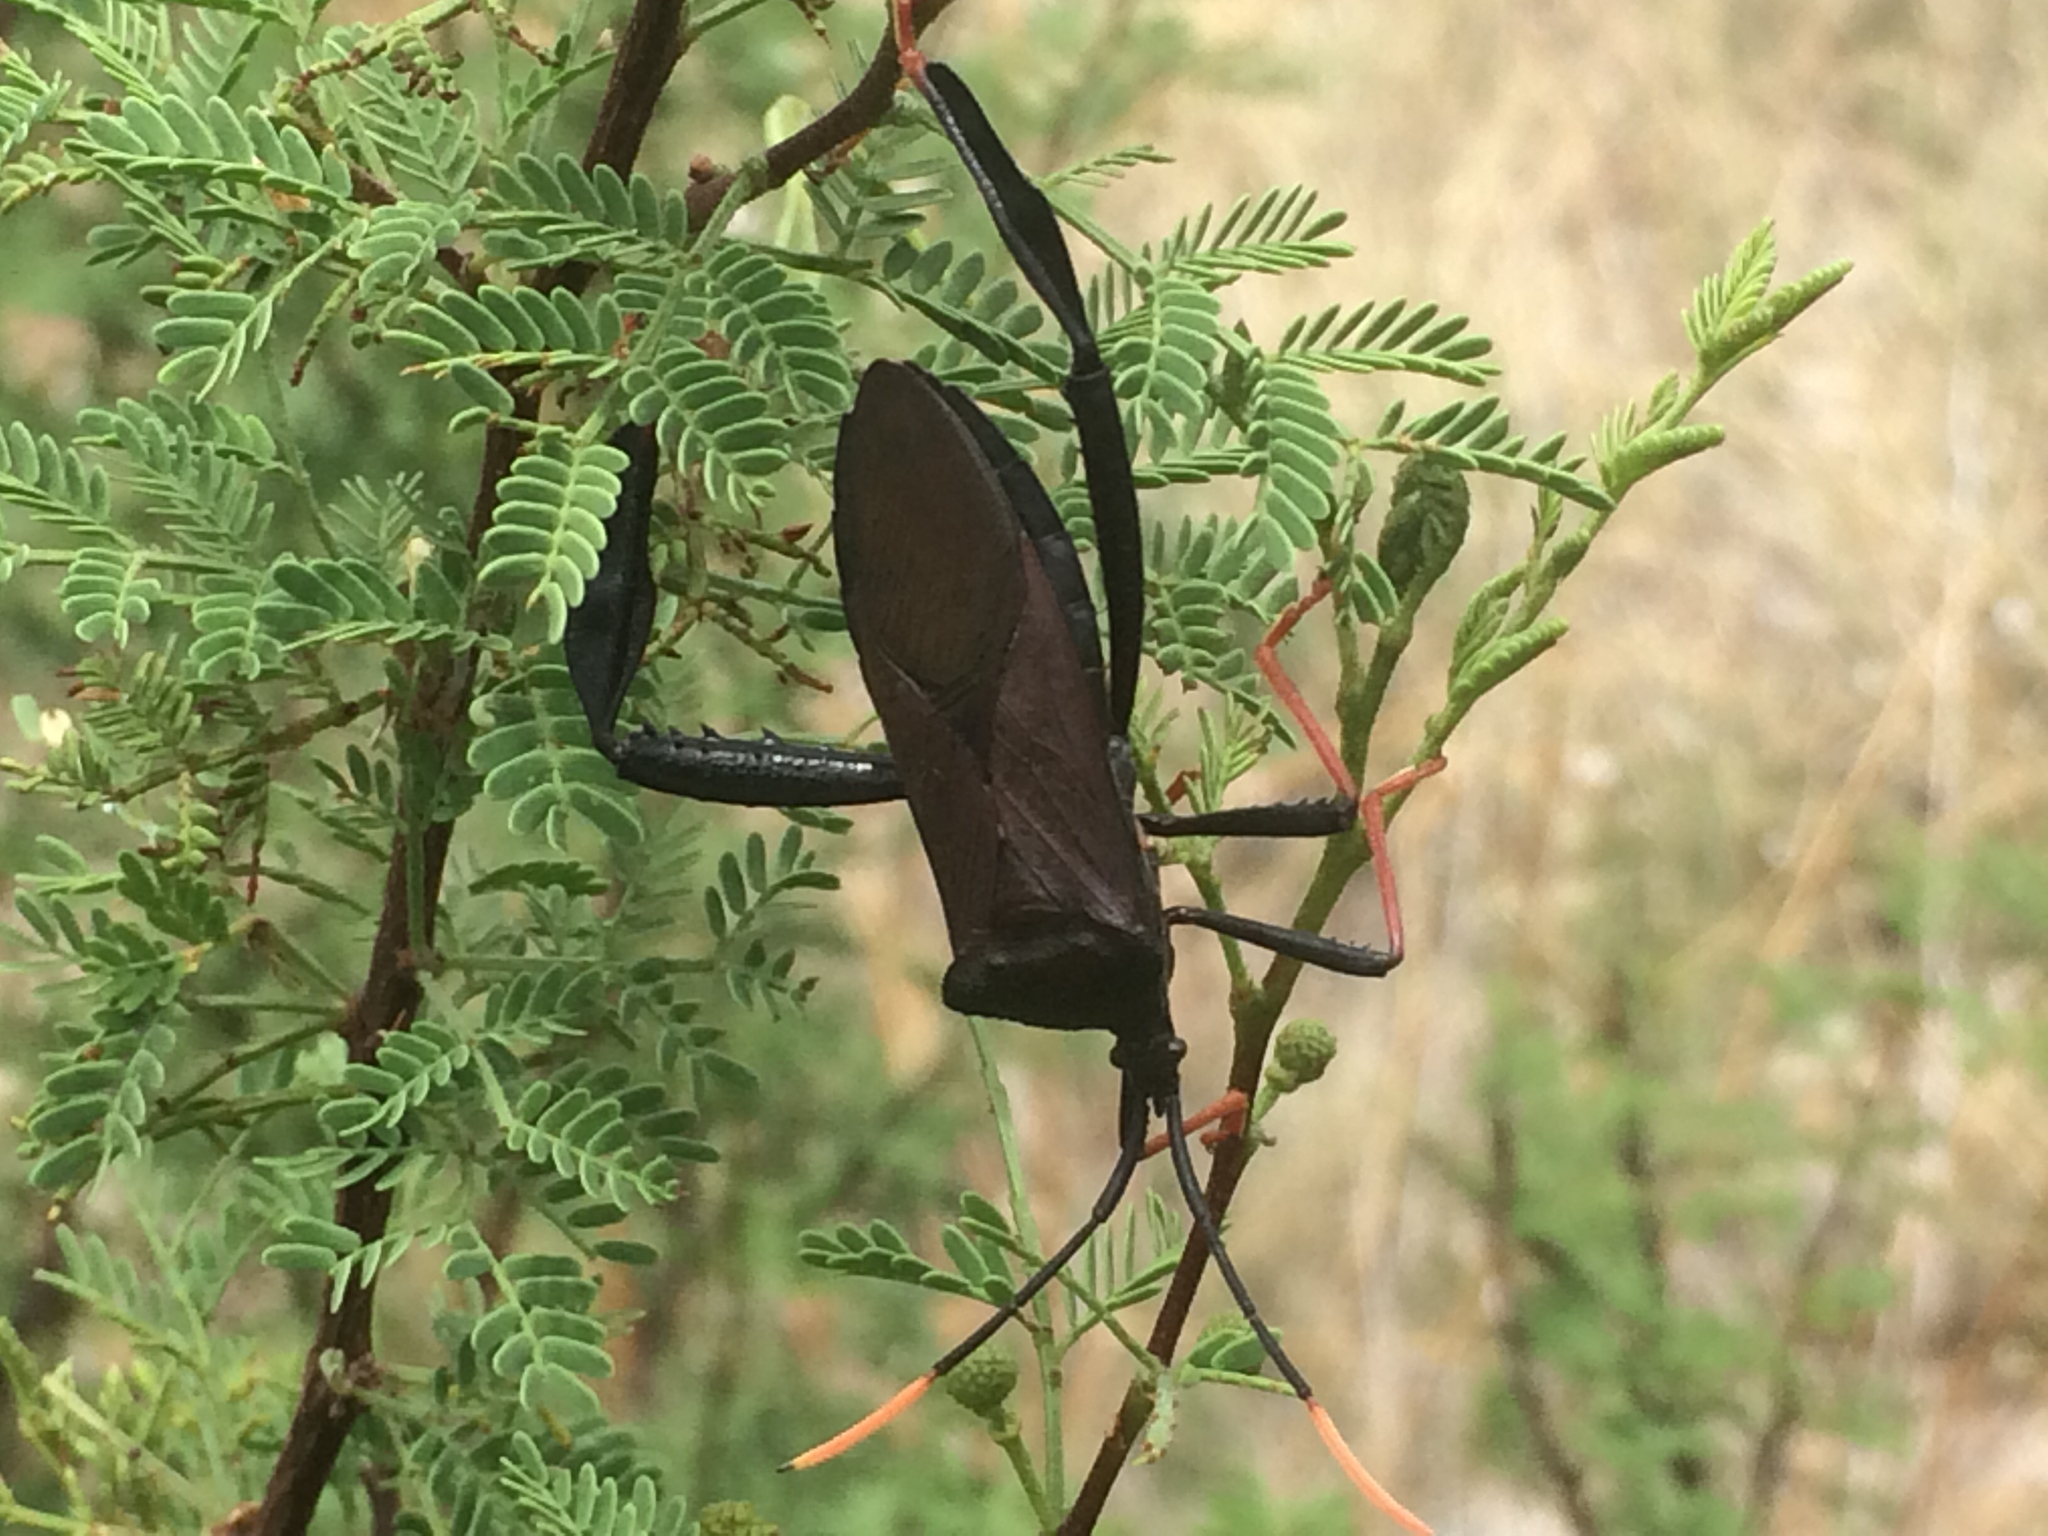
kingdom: Animalia
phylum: Arthropoda
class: Insecta
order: Hemiptera
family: Coreidae
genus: Acanthocephala
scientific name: Acanthocephala thomasi
